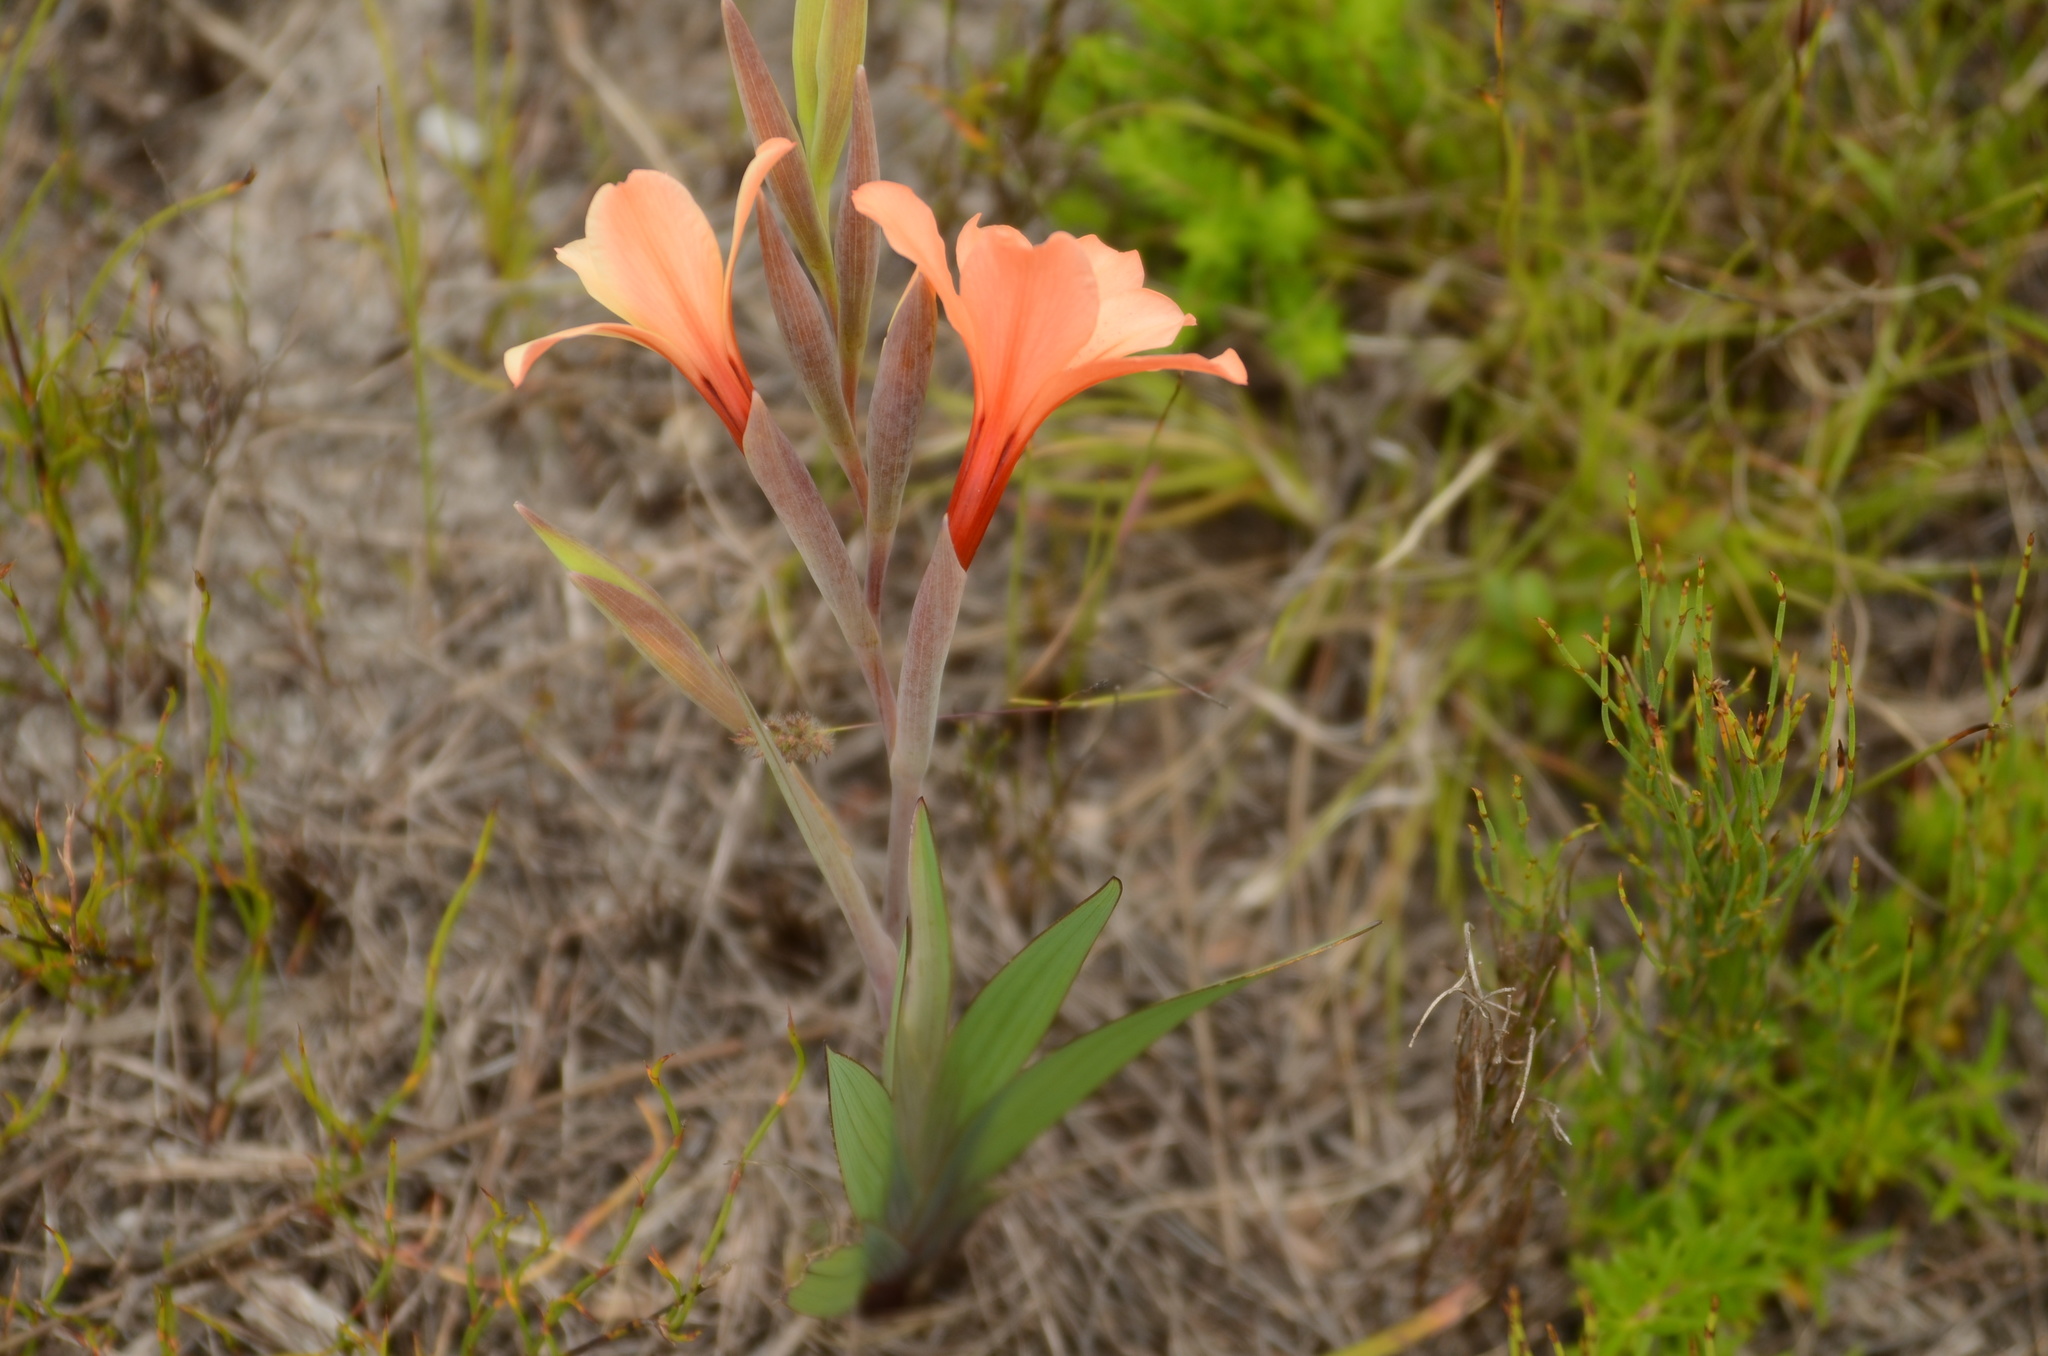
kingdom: Plantae
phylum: Tracheophyta
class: Liliopsida
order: Asparagales
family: Iridaceae
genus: Gladiolus
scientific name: Gladiolus miniatus
